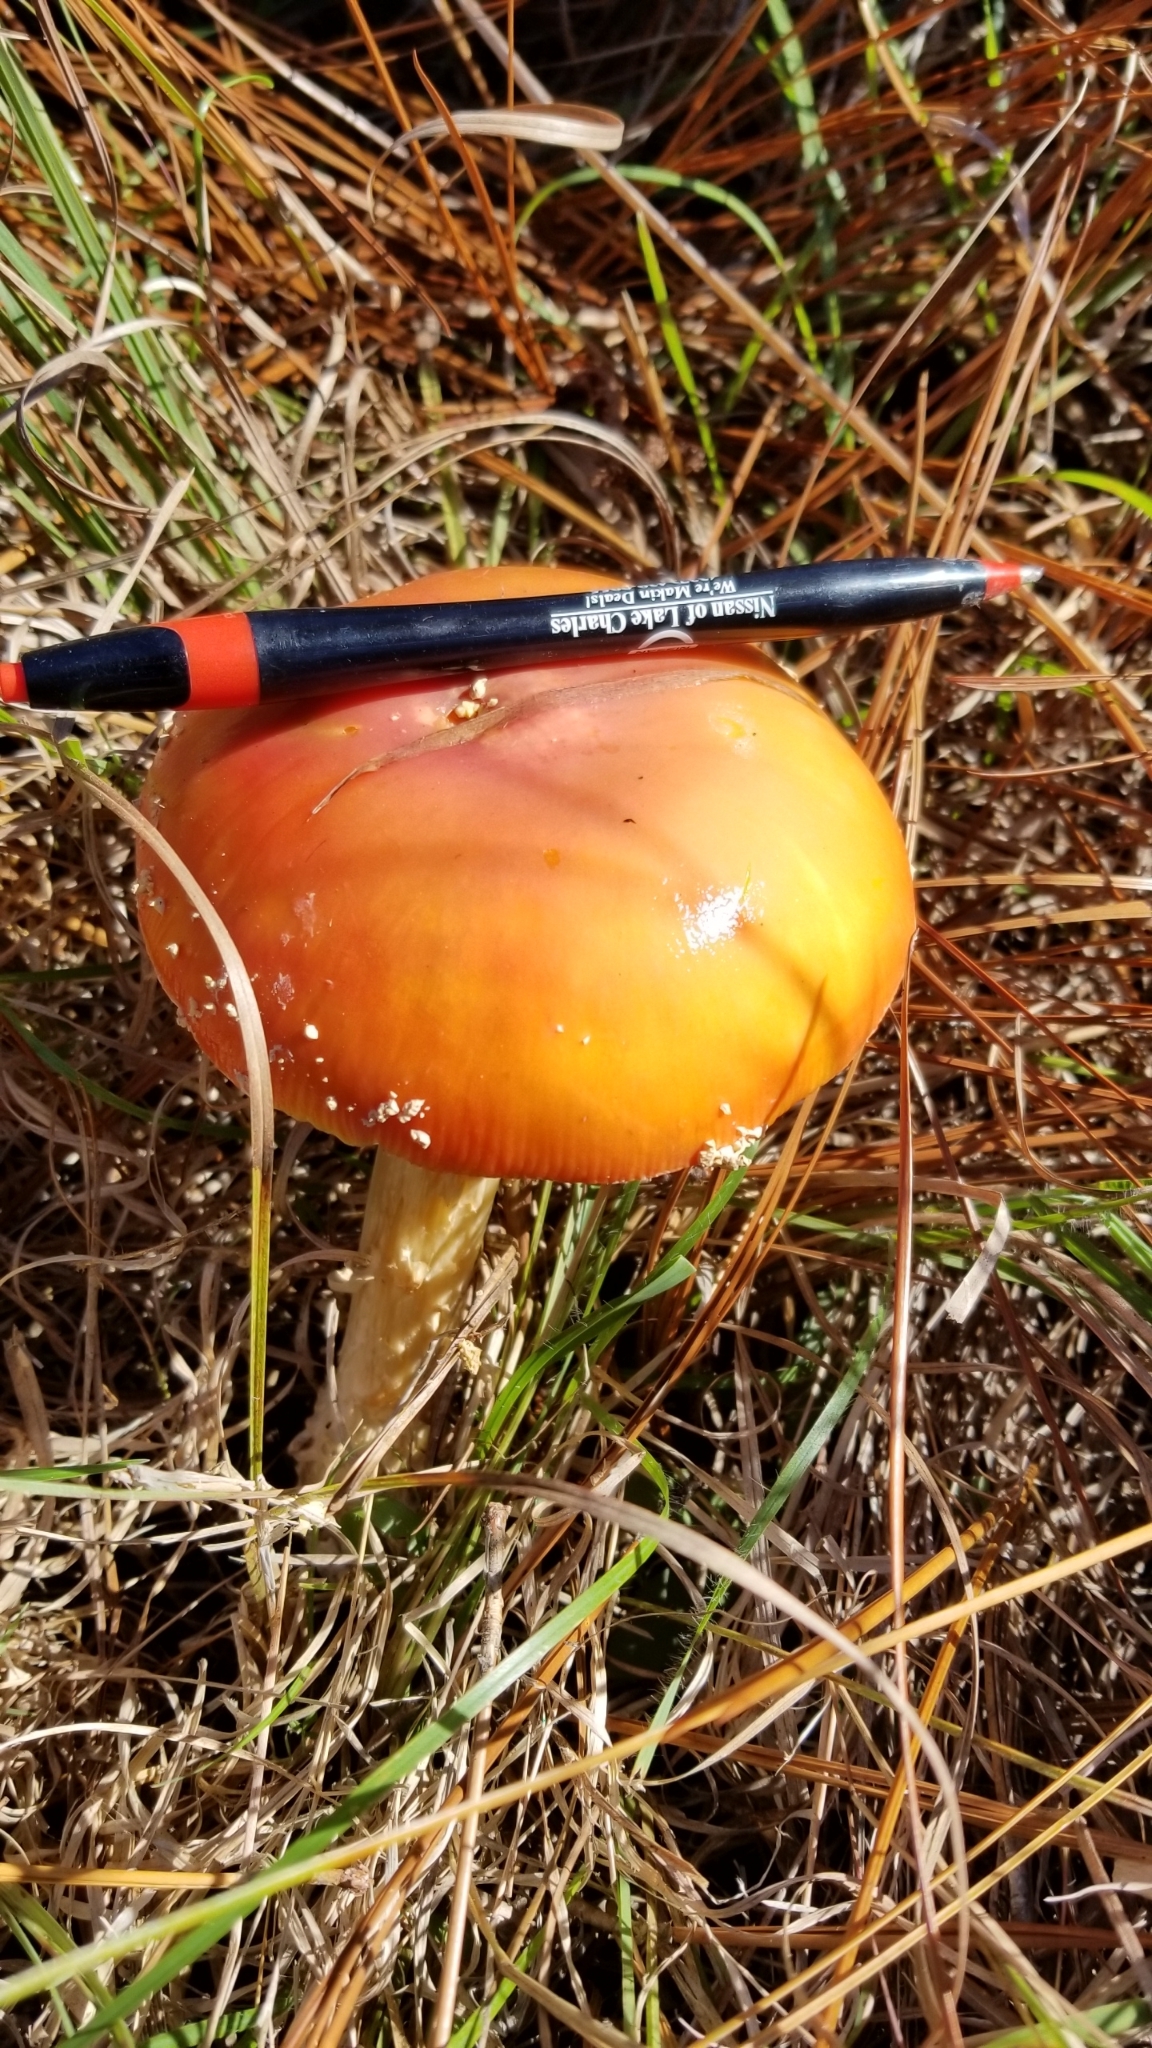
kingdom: Fungi
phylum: Basidiomycota
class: Agaricomycetes
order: Agaricales
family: Amanitaceae
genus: Amanita
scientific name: Amanita persicina
